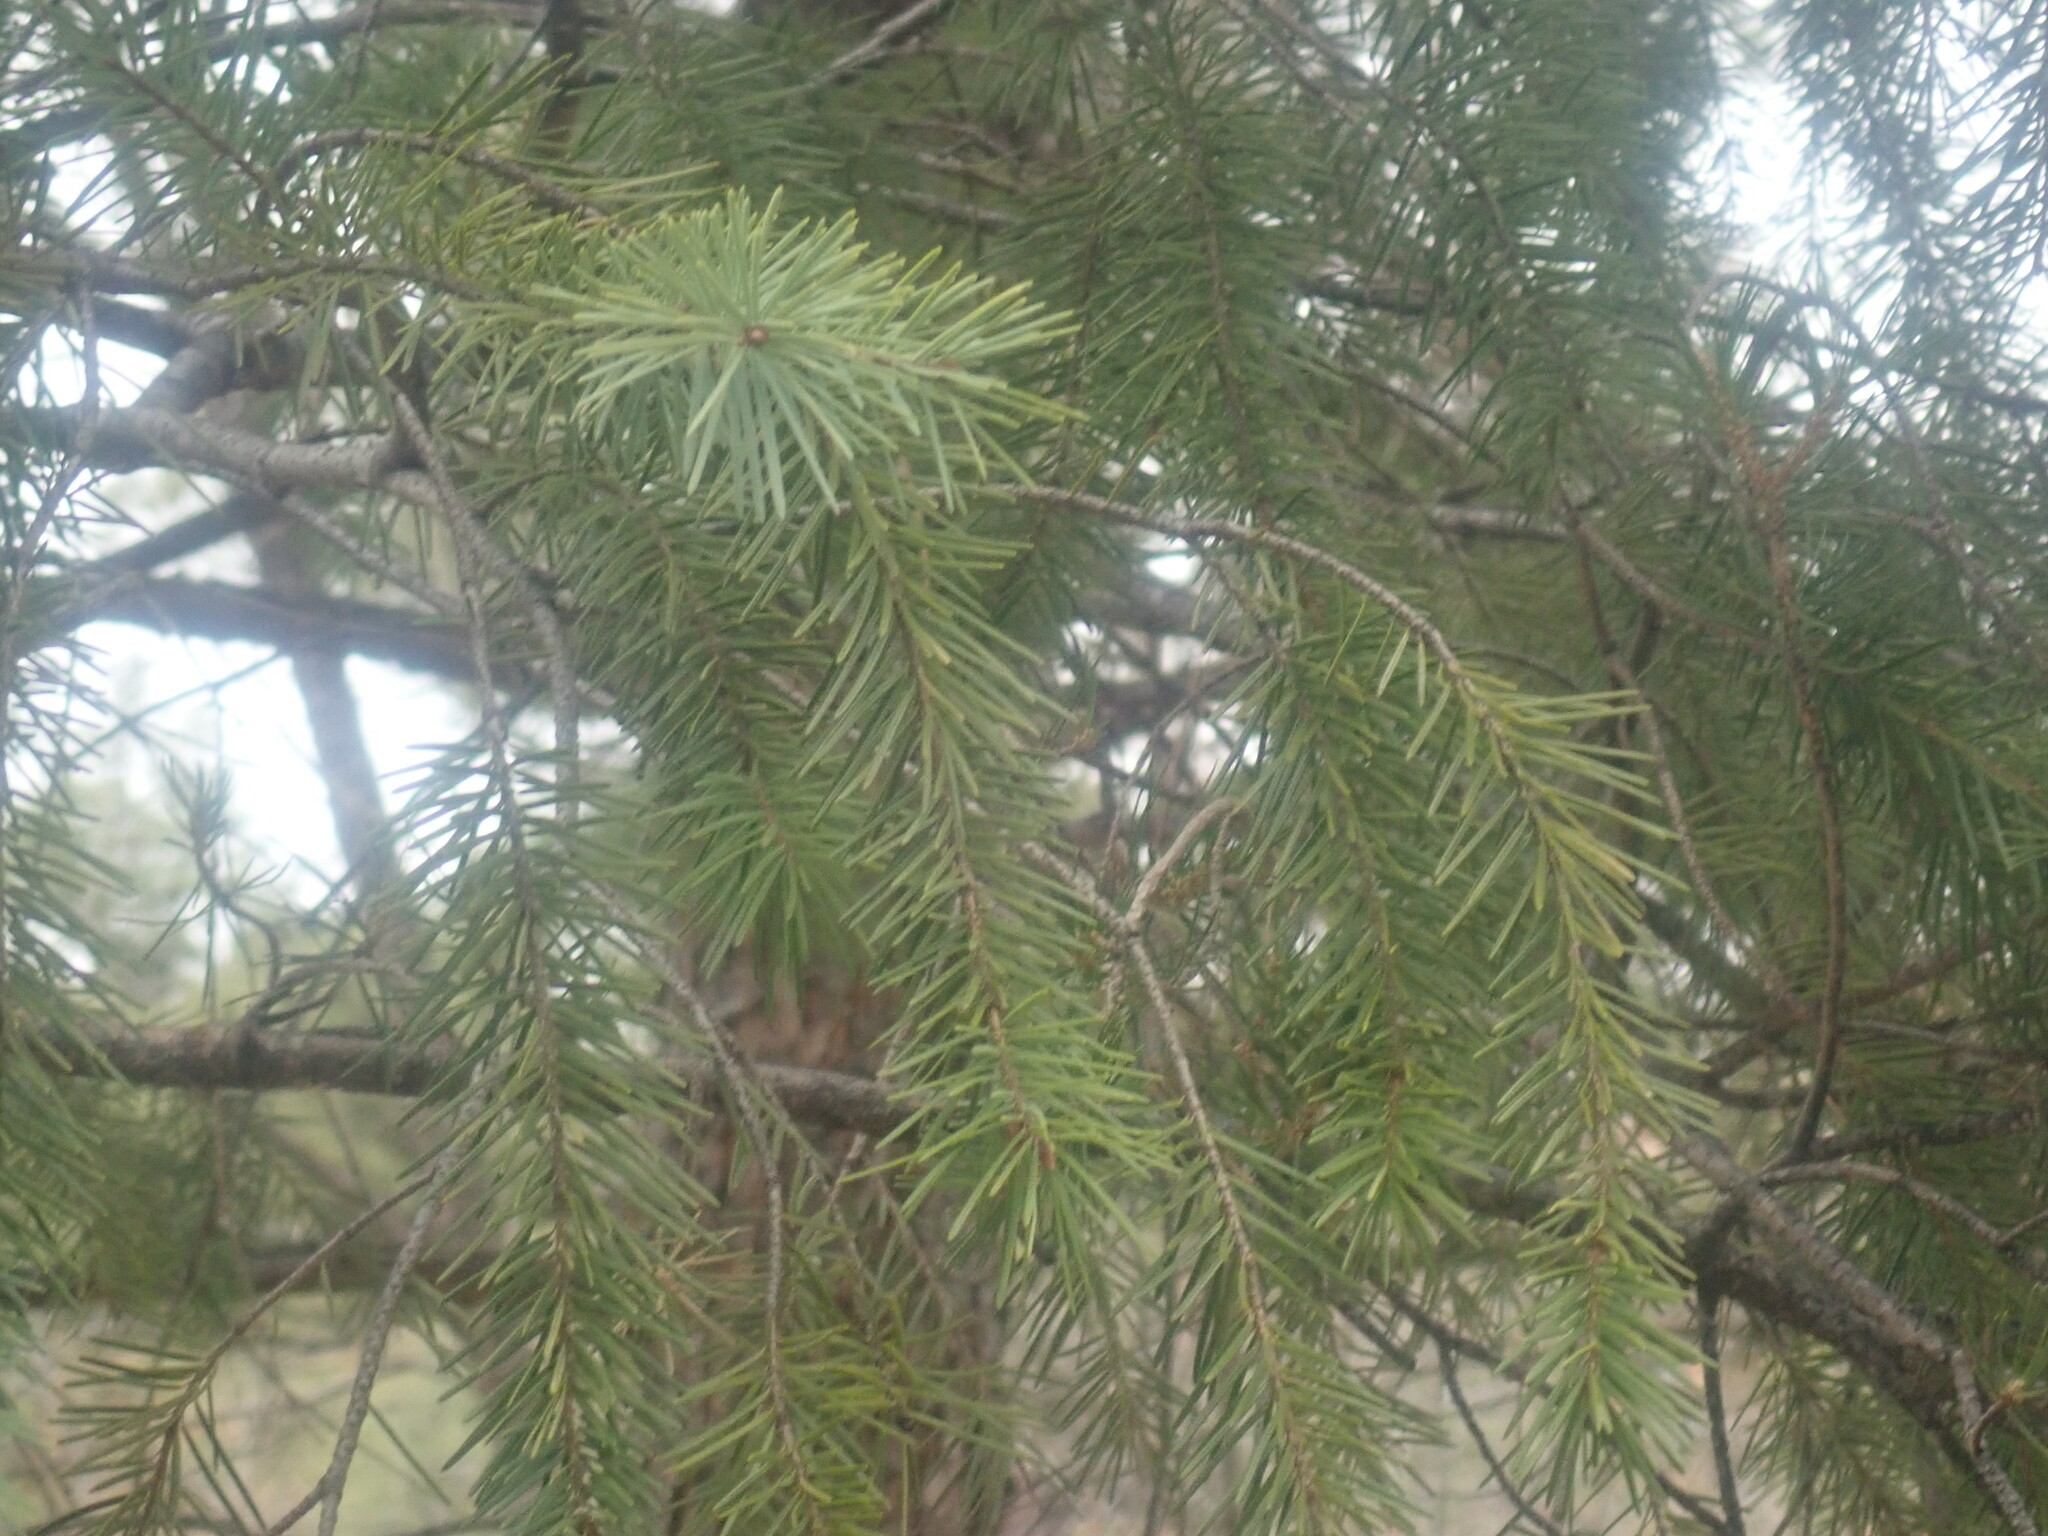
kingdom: Plantae
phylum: Tracheophyta
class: Pinopsida
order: Pinales
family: Pinaceae
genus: Pseudotsuga
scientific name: Pseudotsuga menziesii
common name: Douglas fir
